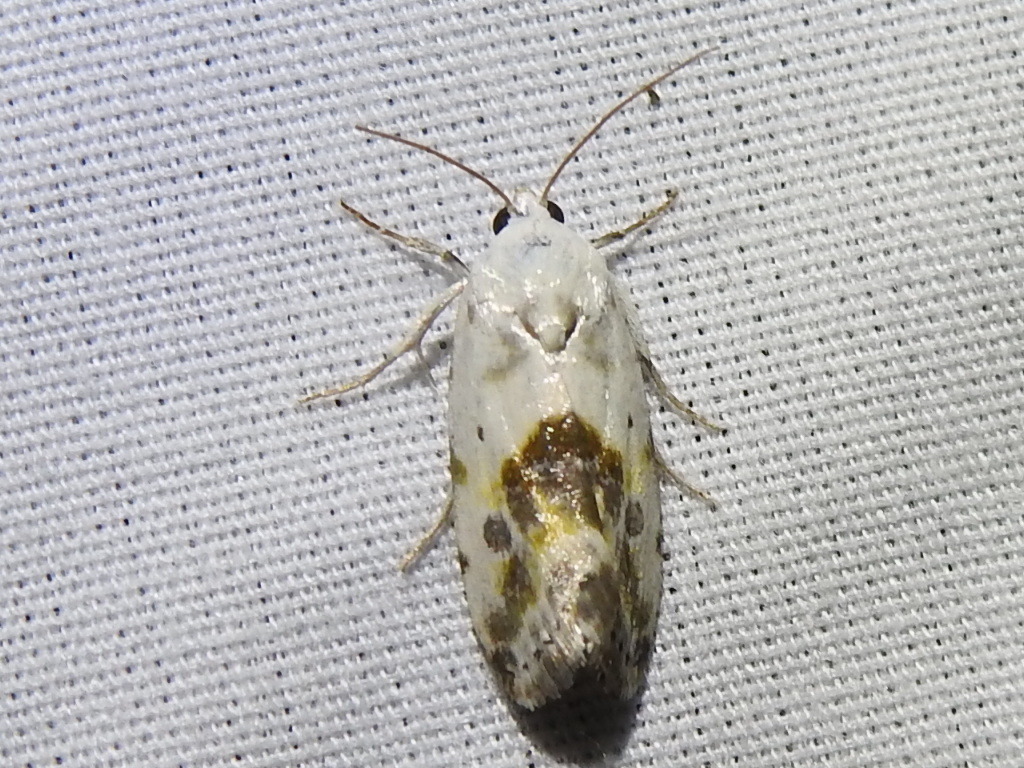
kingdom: Animalia
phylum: Arthropoda
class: Insecta
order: Lepidoptera
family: Noctuidae
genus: Acontia
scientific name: Acontia candefacta
